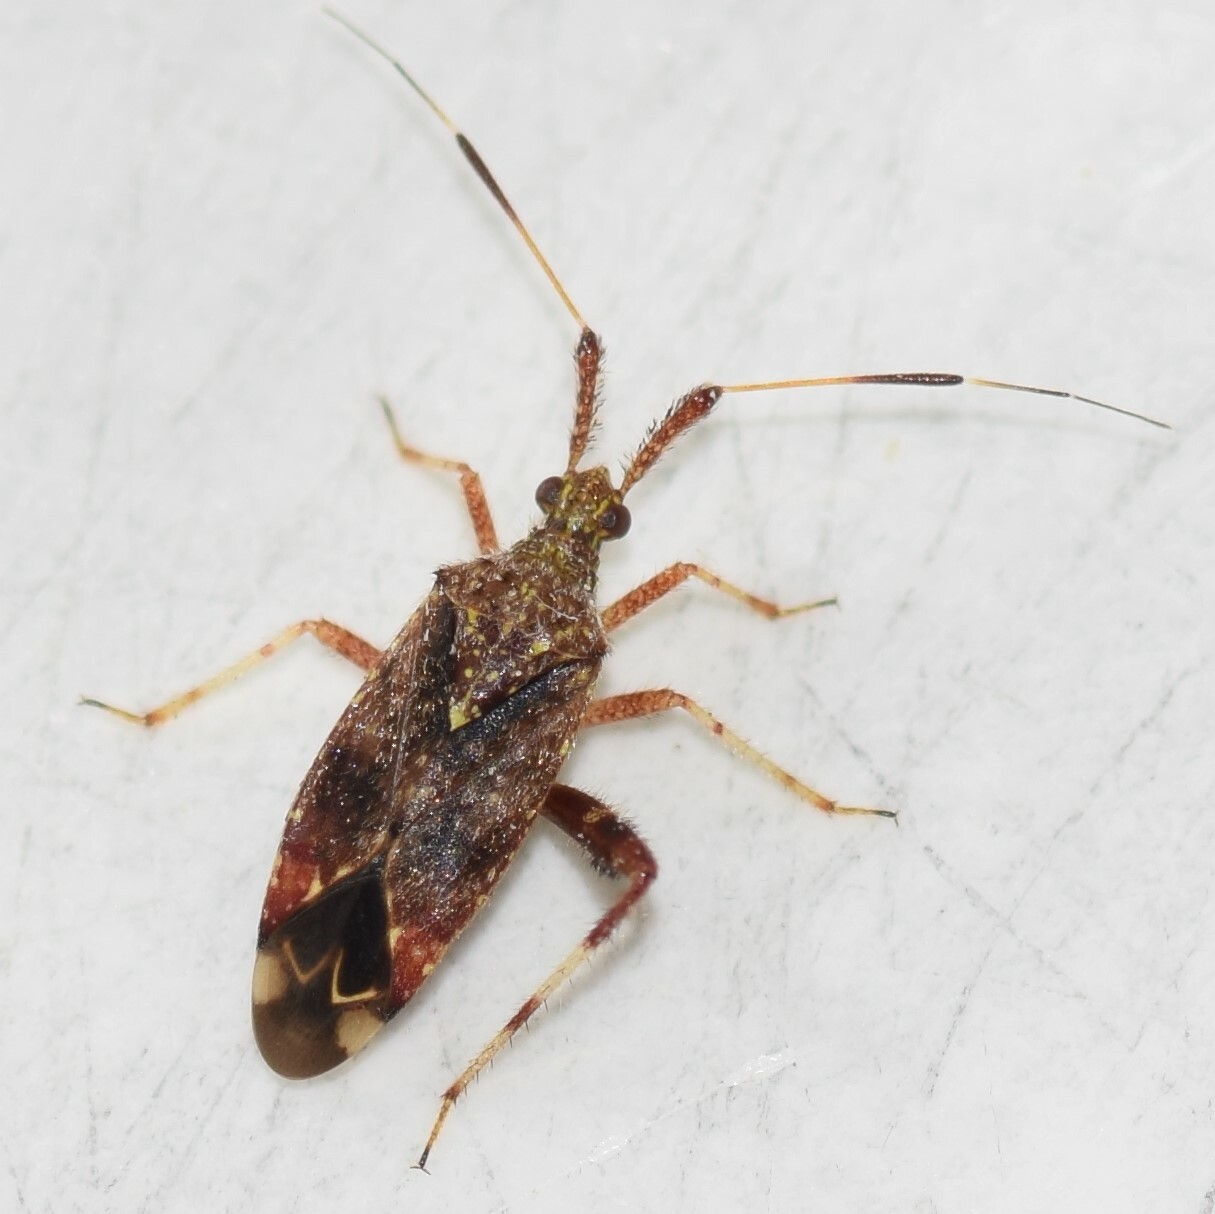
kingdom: Animalia
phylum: Arthropoda
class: Insecta
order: Hemiptera
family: Miridae
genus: Neurocolpus
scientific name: Neurocolpus nubilus
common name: Clouded plant bug
